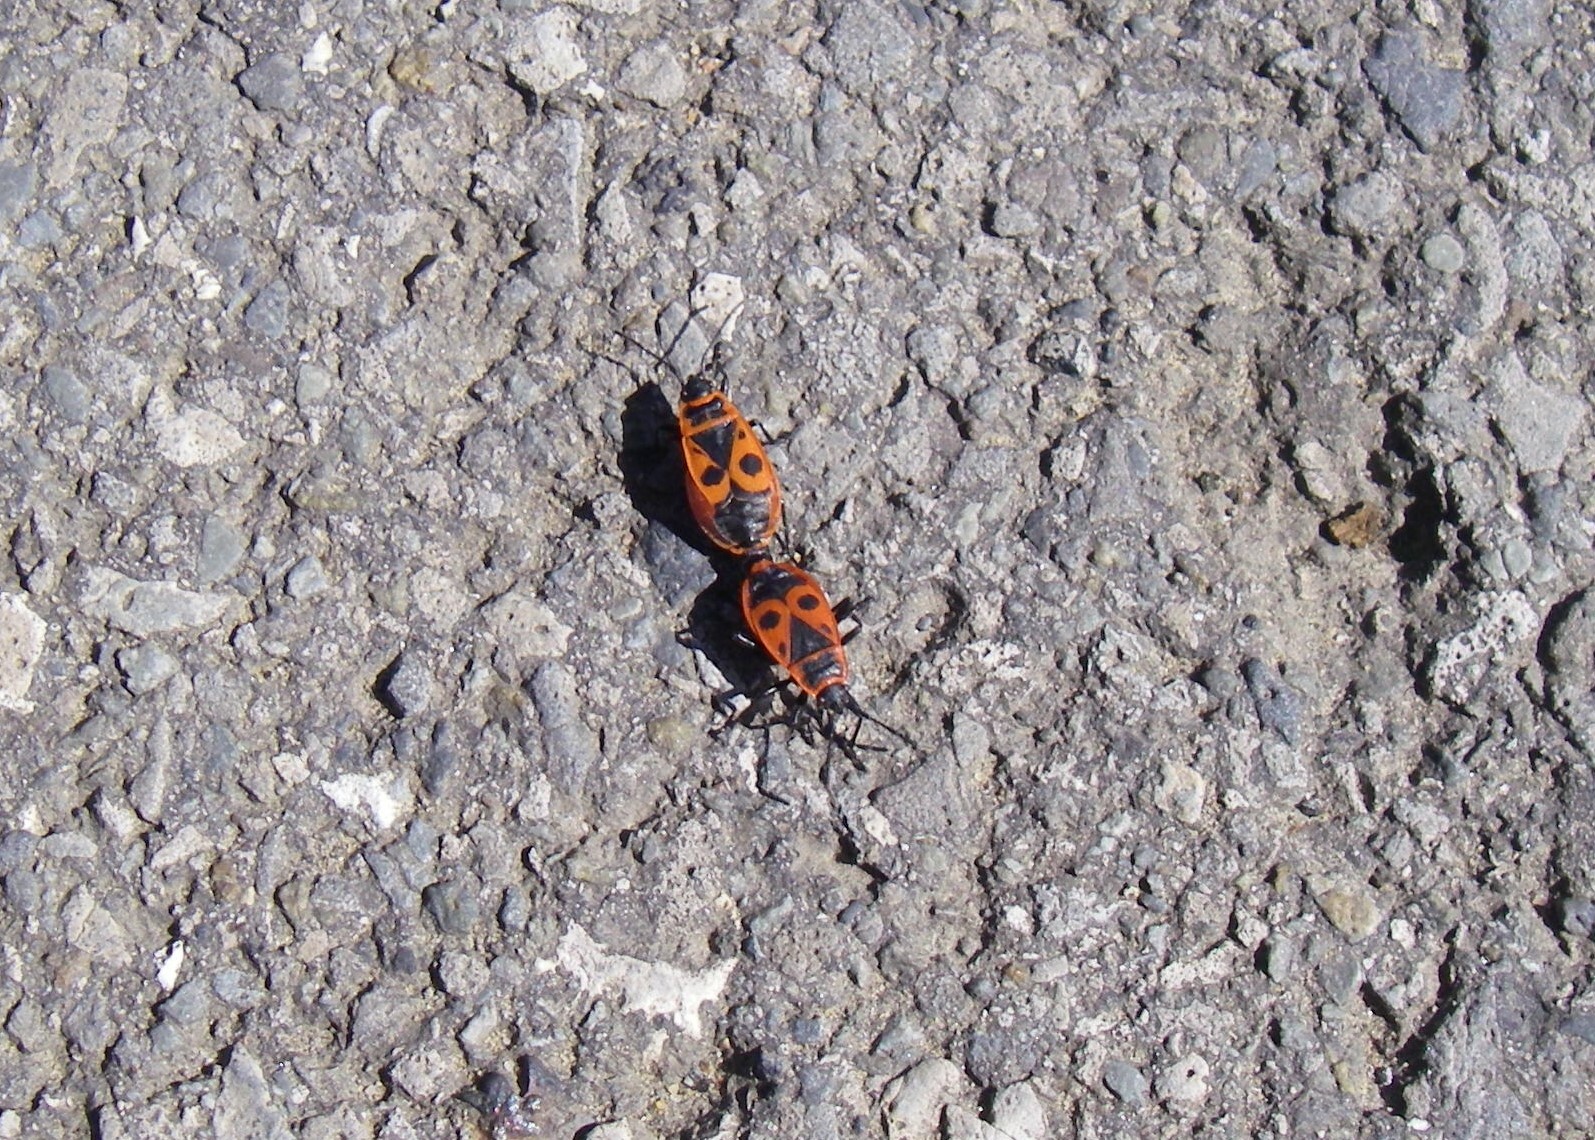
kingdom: Animalia
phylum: Arthropoda
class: Insecta
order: Hemiptera
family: Pyrrhocoridae
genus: Pyrrhocoris
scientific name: Pyrrhocoris apterus
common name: Firebug
